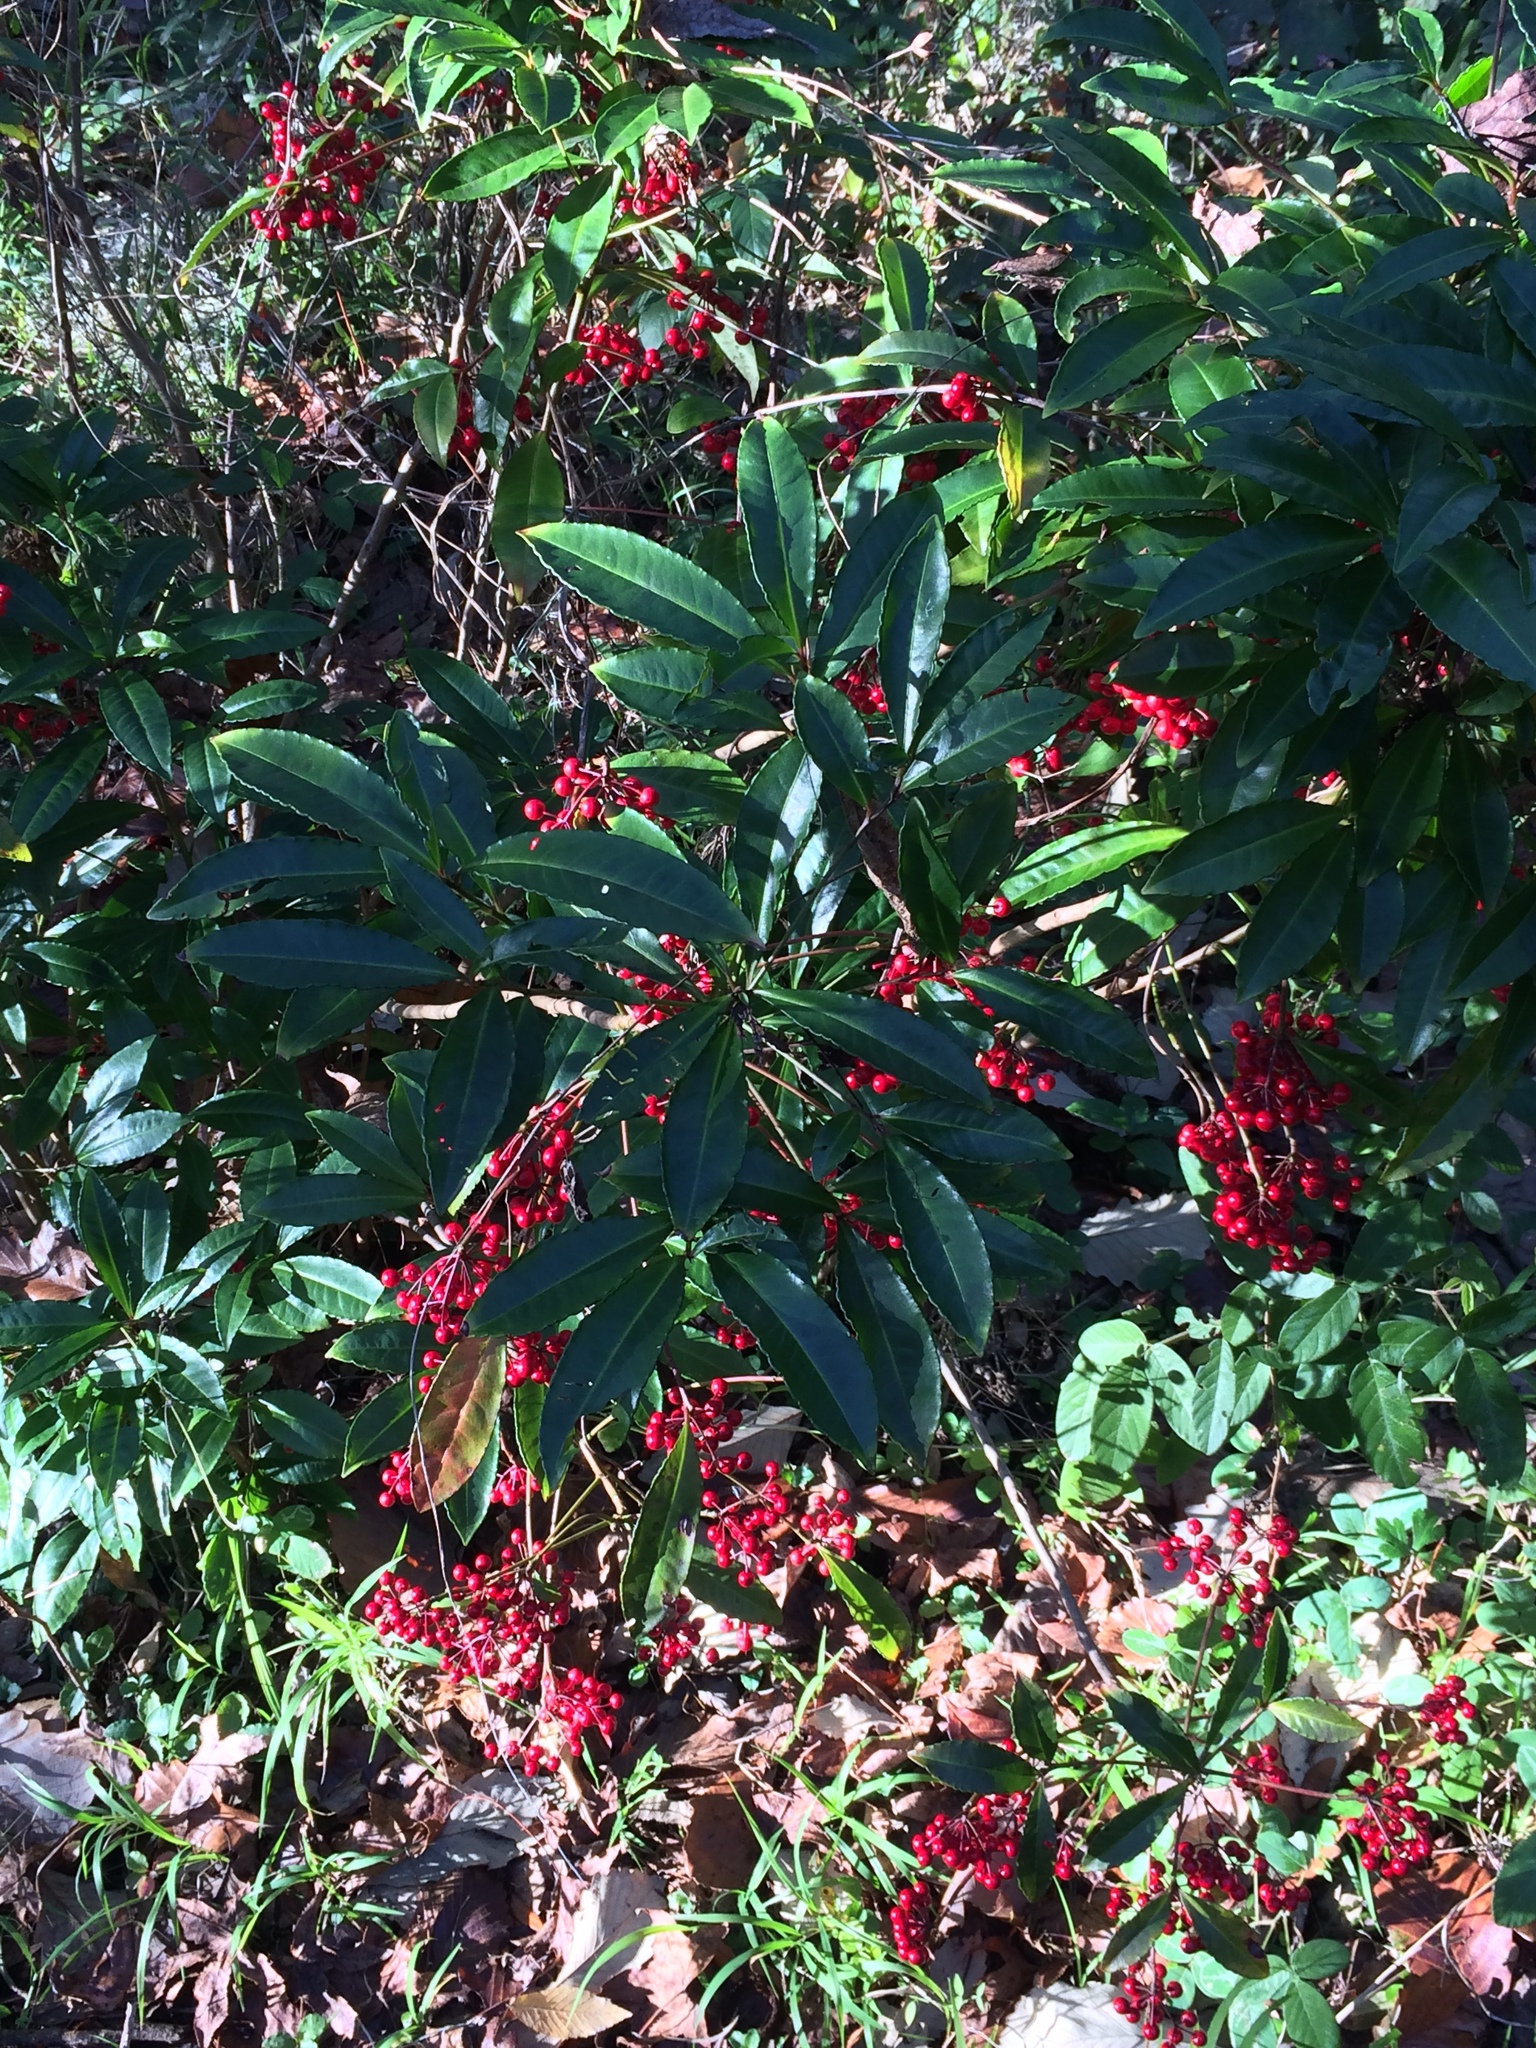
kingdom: Plantae
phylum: Tracheophyta
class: Magnoliopsida
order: Ericales
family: Primulaceae
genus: Ardisia
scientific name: Ardisia crenata
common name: Hen's eyes
